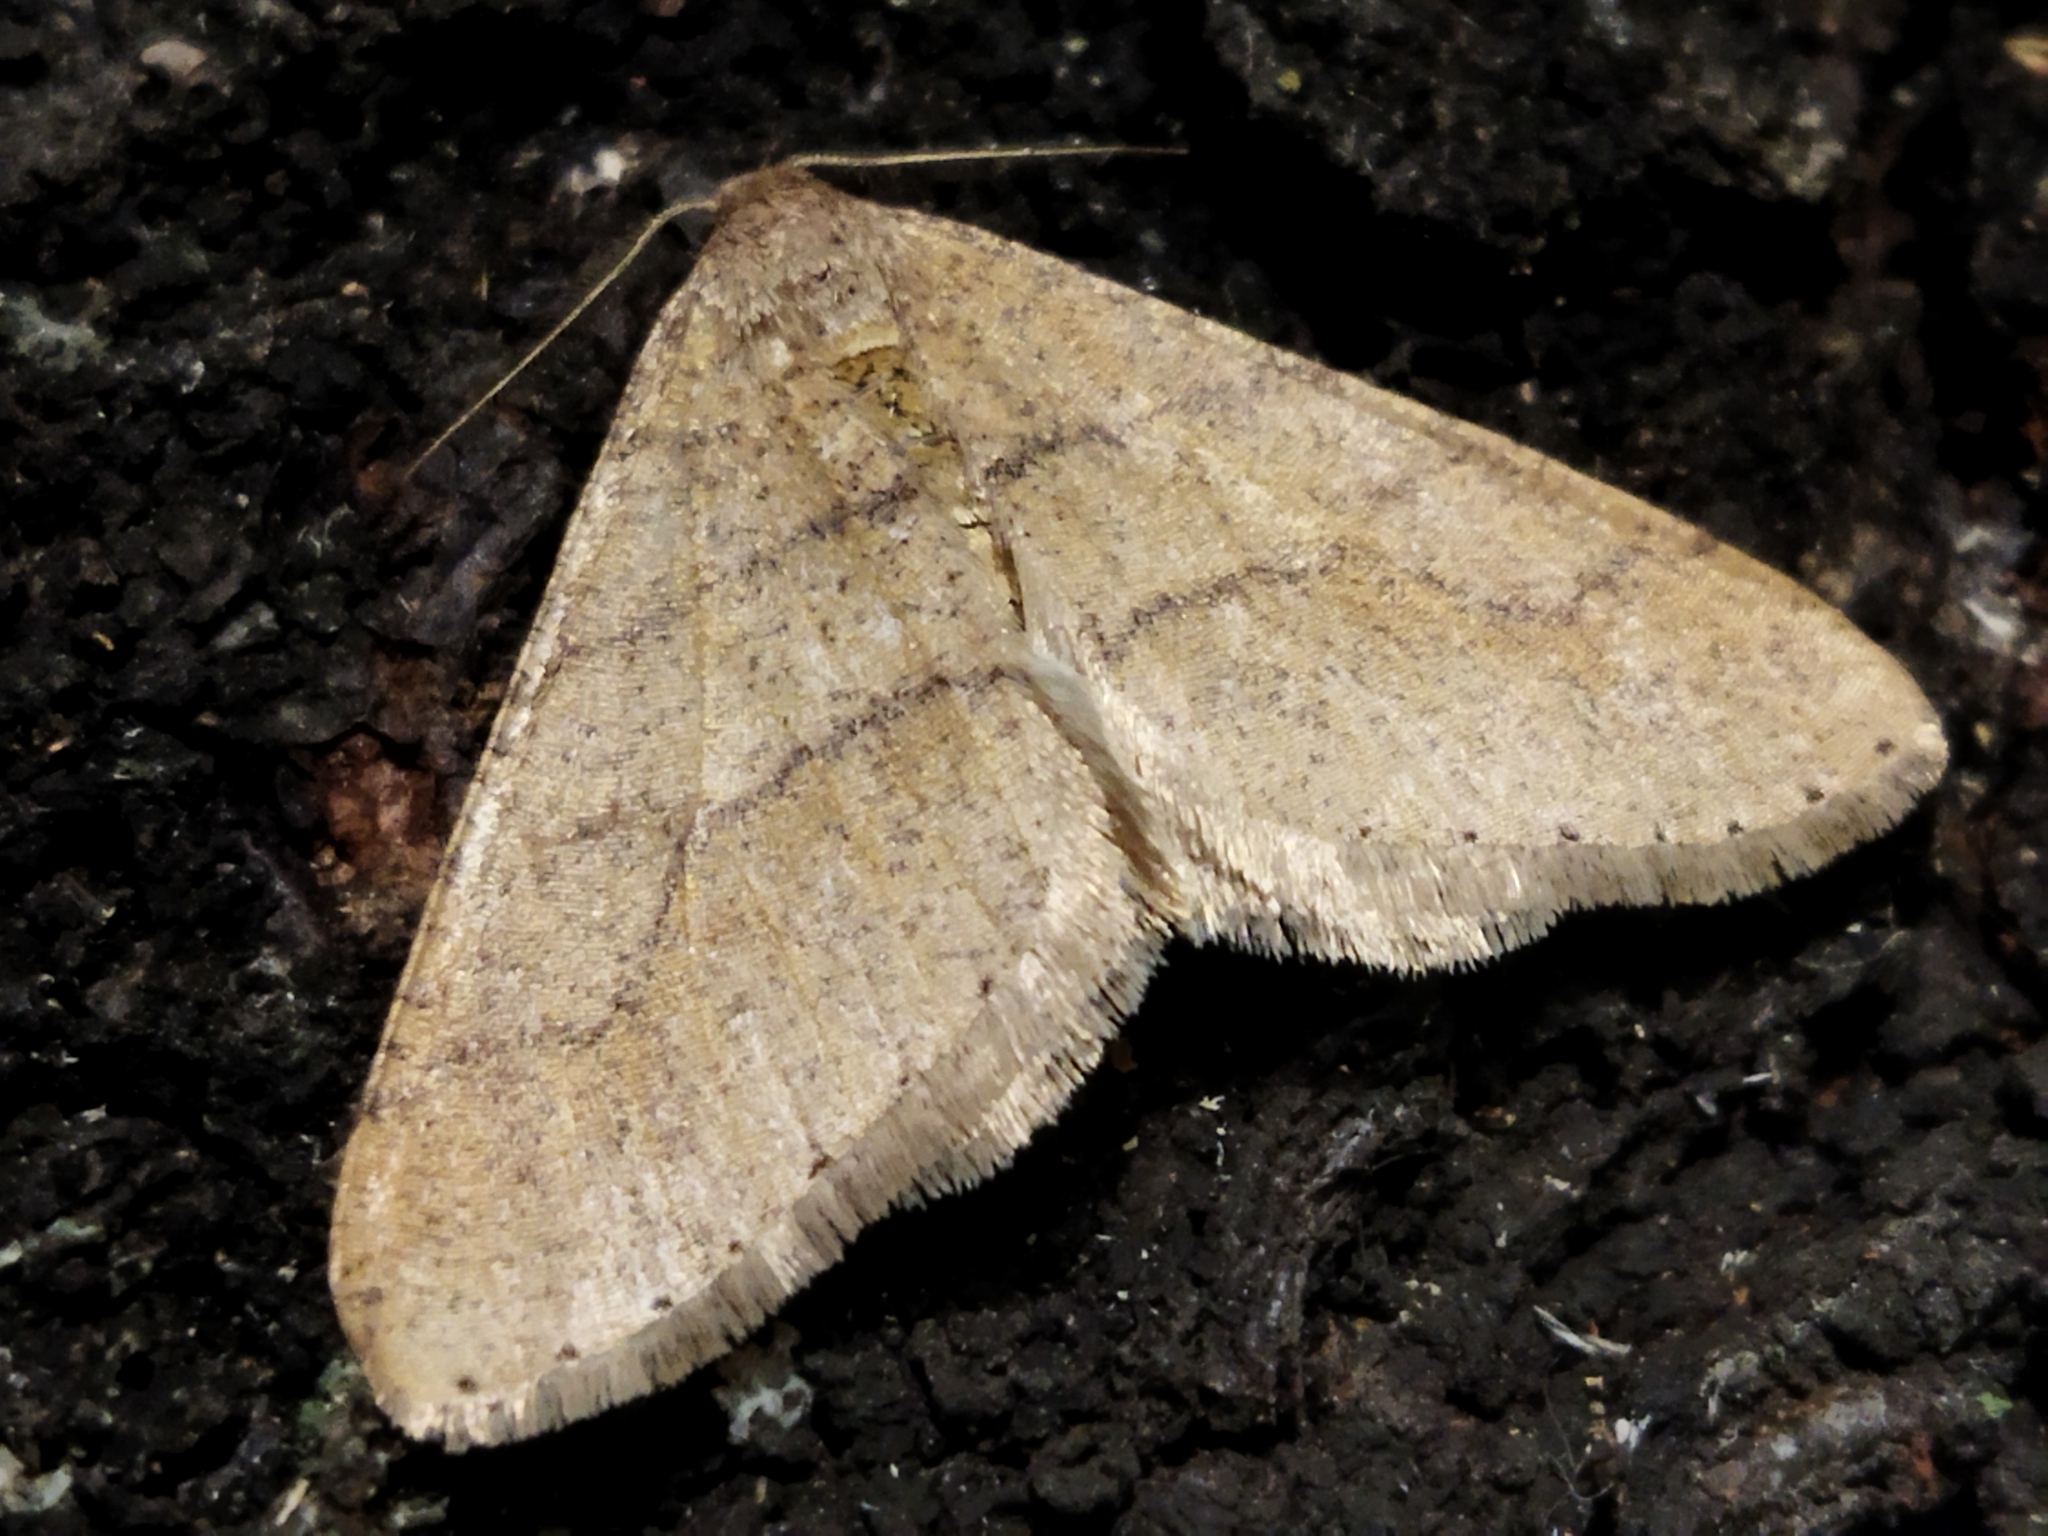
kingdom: Animalia
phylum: Arthropoda
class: Insecta
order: Lepidoptera
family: Geometridae
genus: Agriopis
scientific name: Agriopis marginaria
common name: Dotted border
